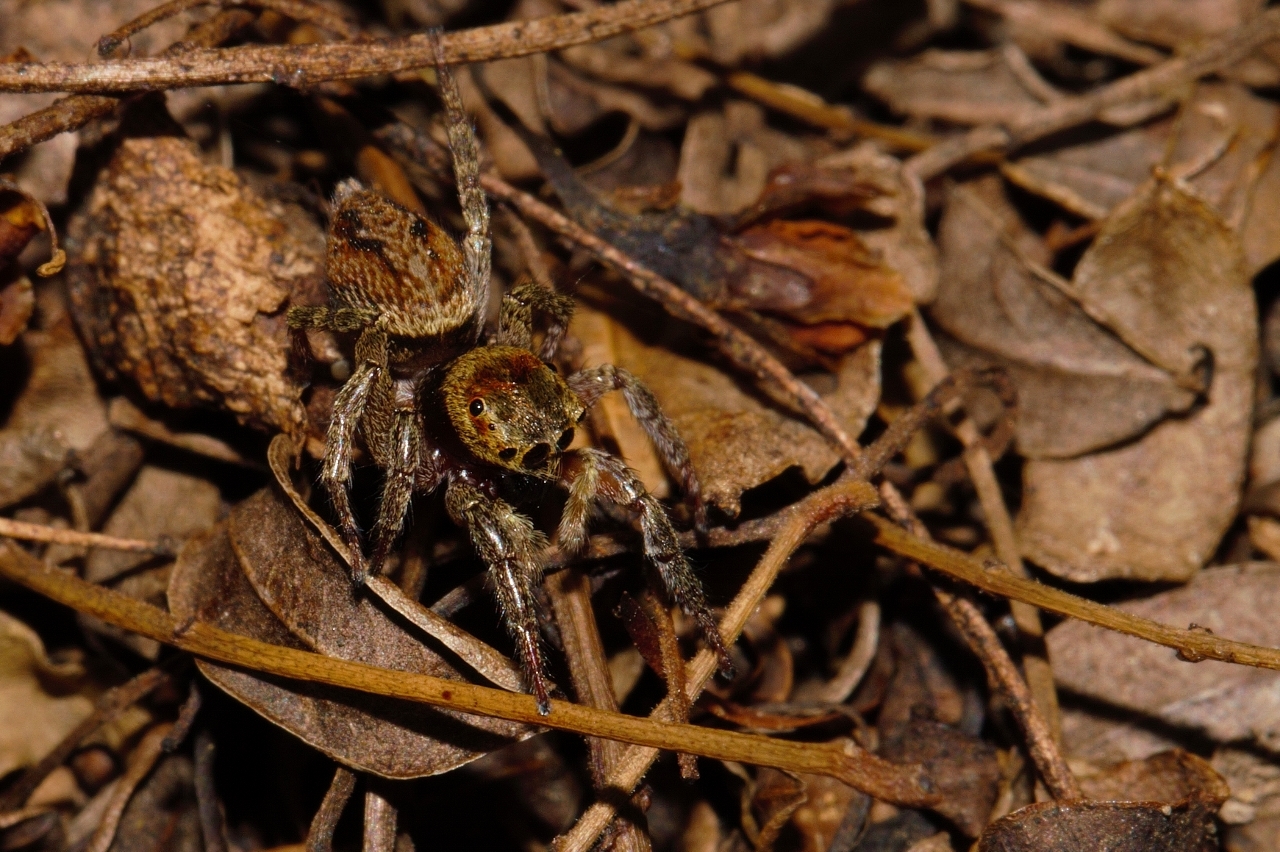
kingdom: Animalia
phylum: Arthropoda
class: Arachnida
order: Araneae
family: Salticidae
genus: Hasarius
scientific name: Hasarius adansoni
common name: Jumping spider
